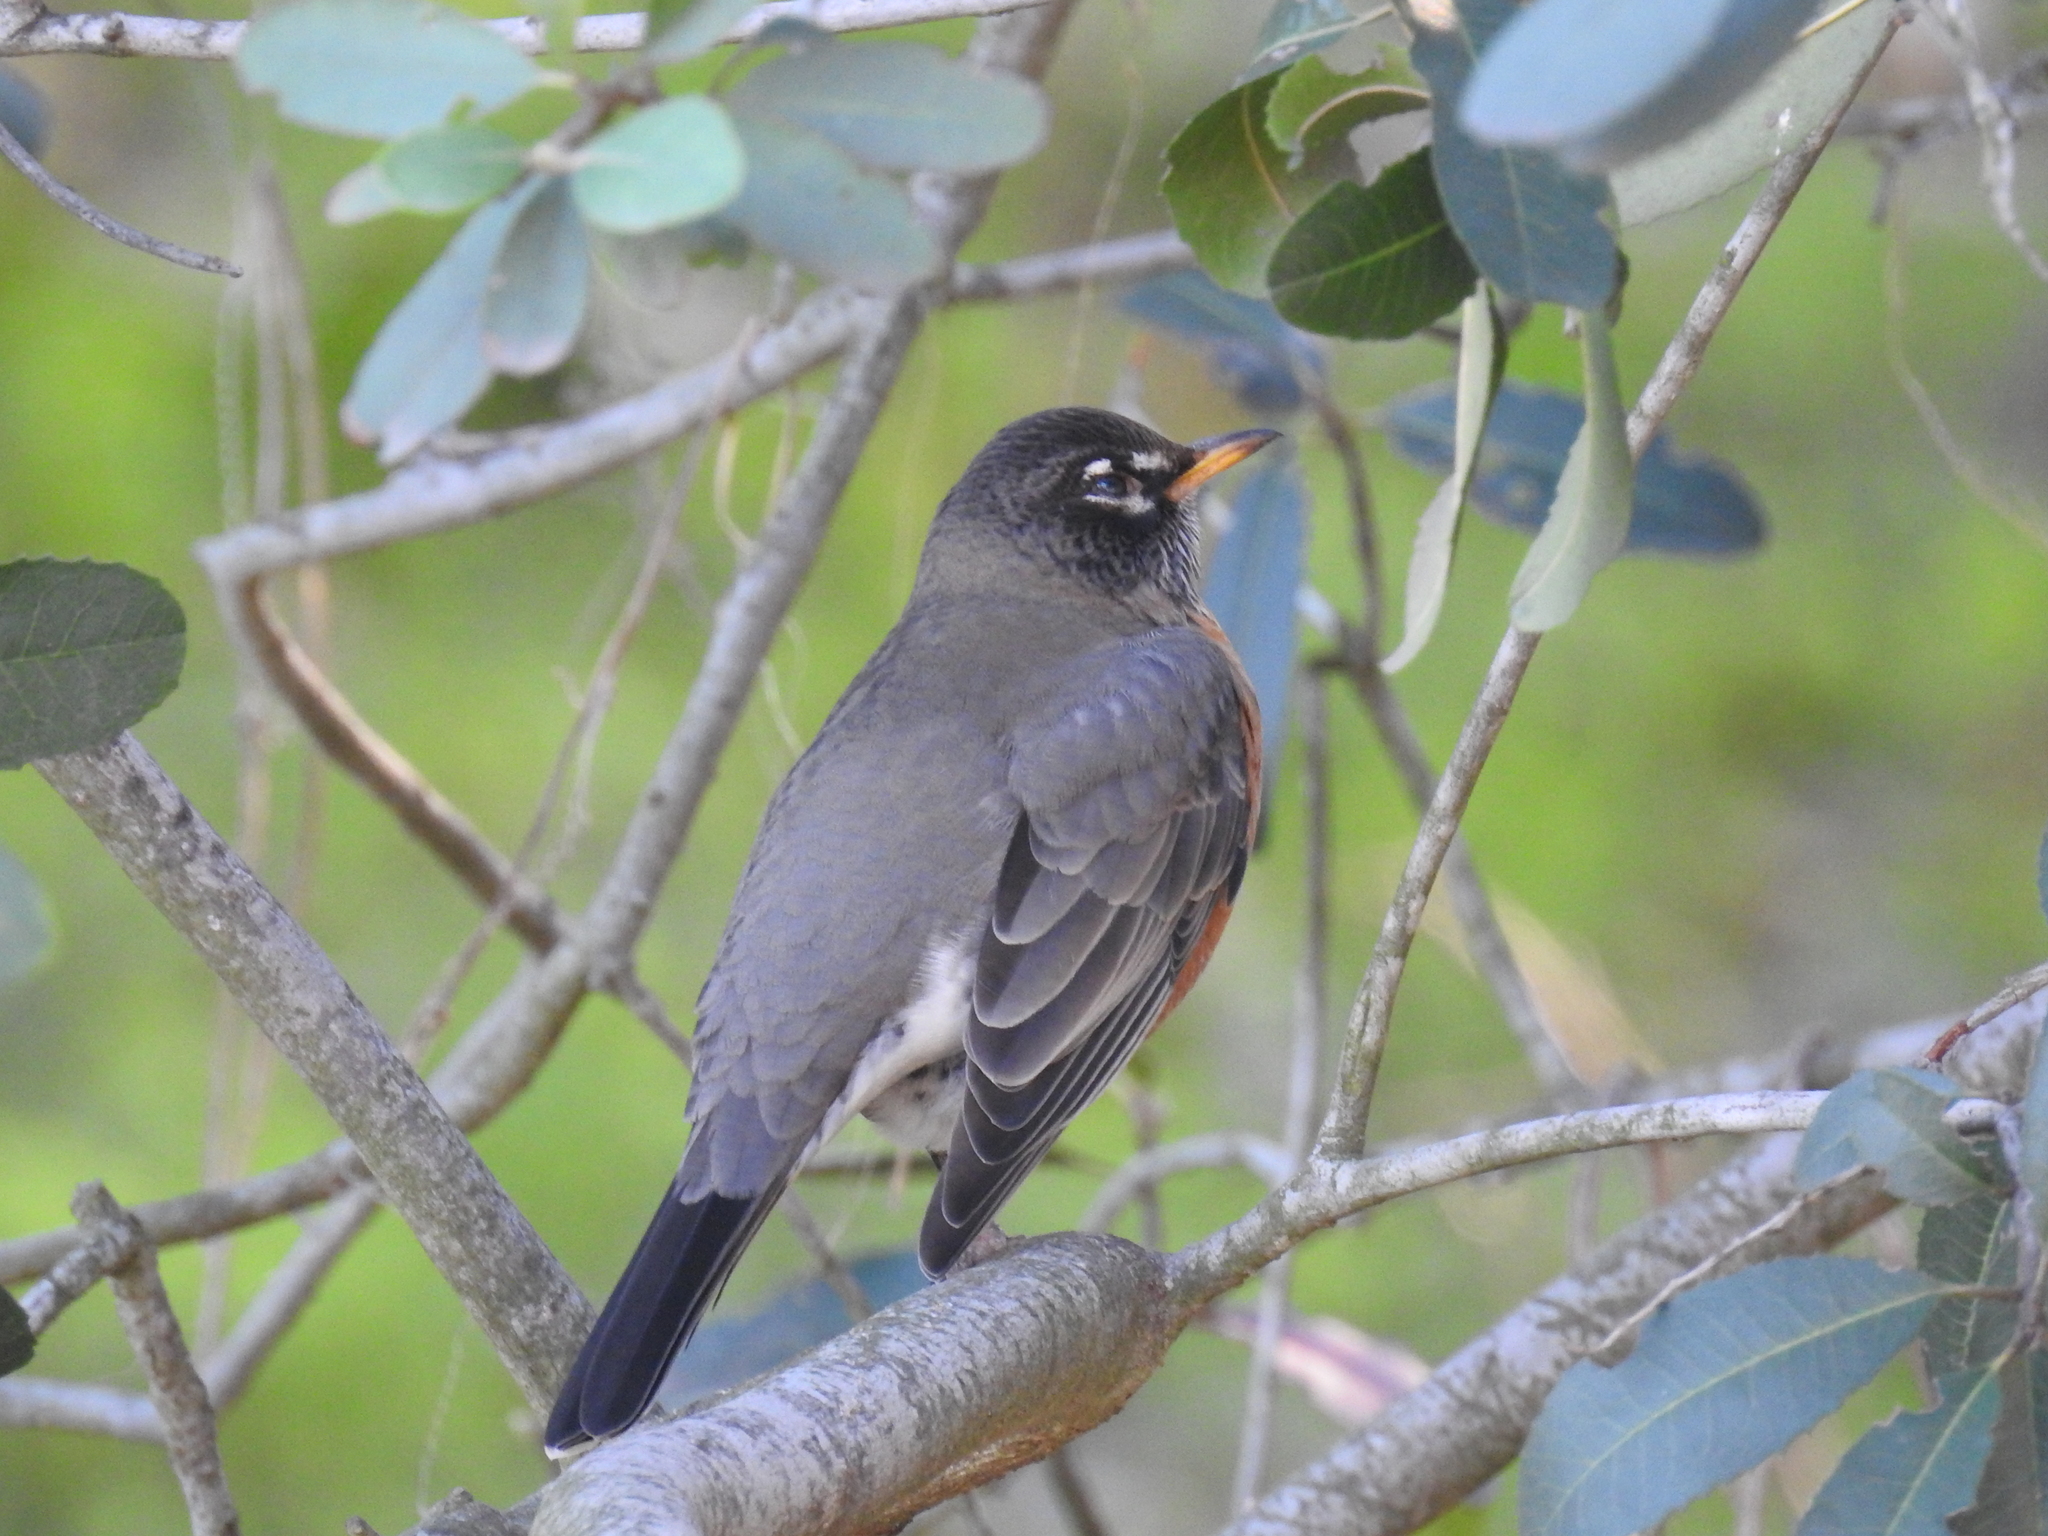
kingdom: Animalia
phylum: Chordata
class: Aves
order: Passeriformes
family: Turdidae
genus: Turdus
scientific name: Turdus migratorius
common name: American robin
